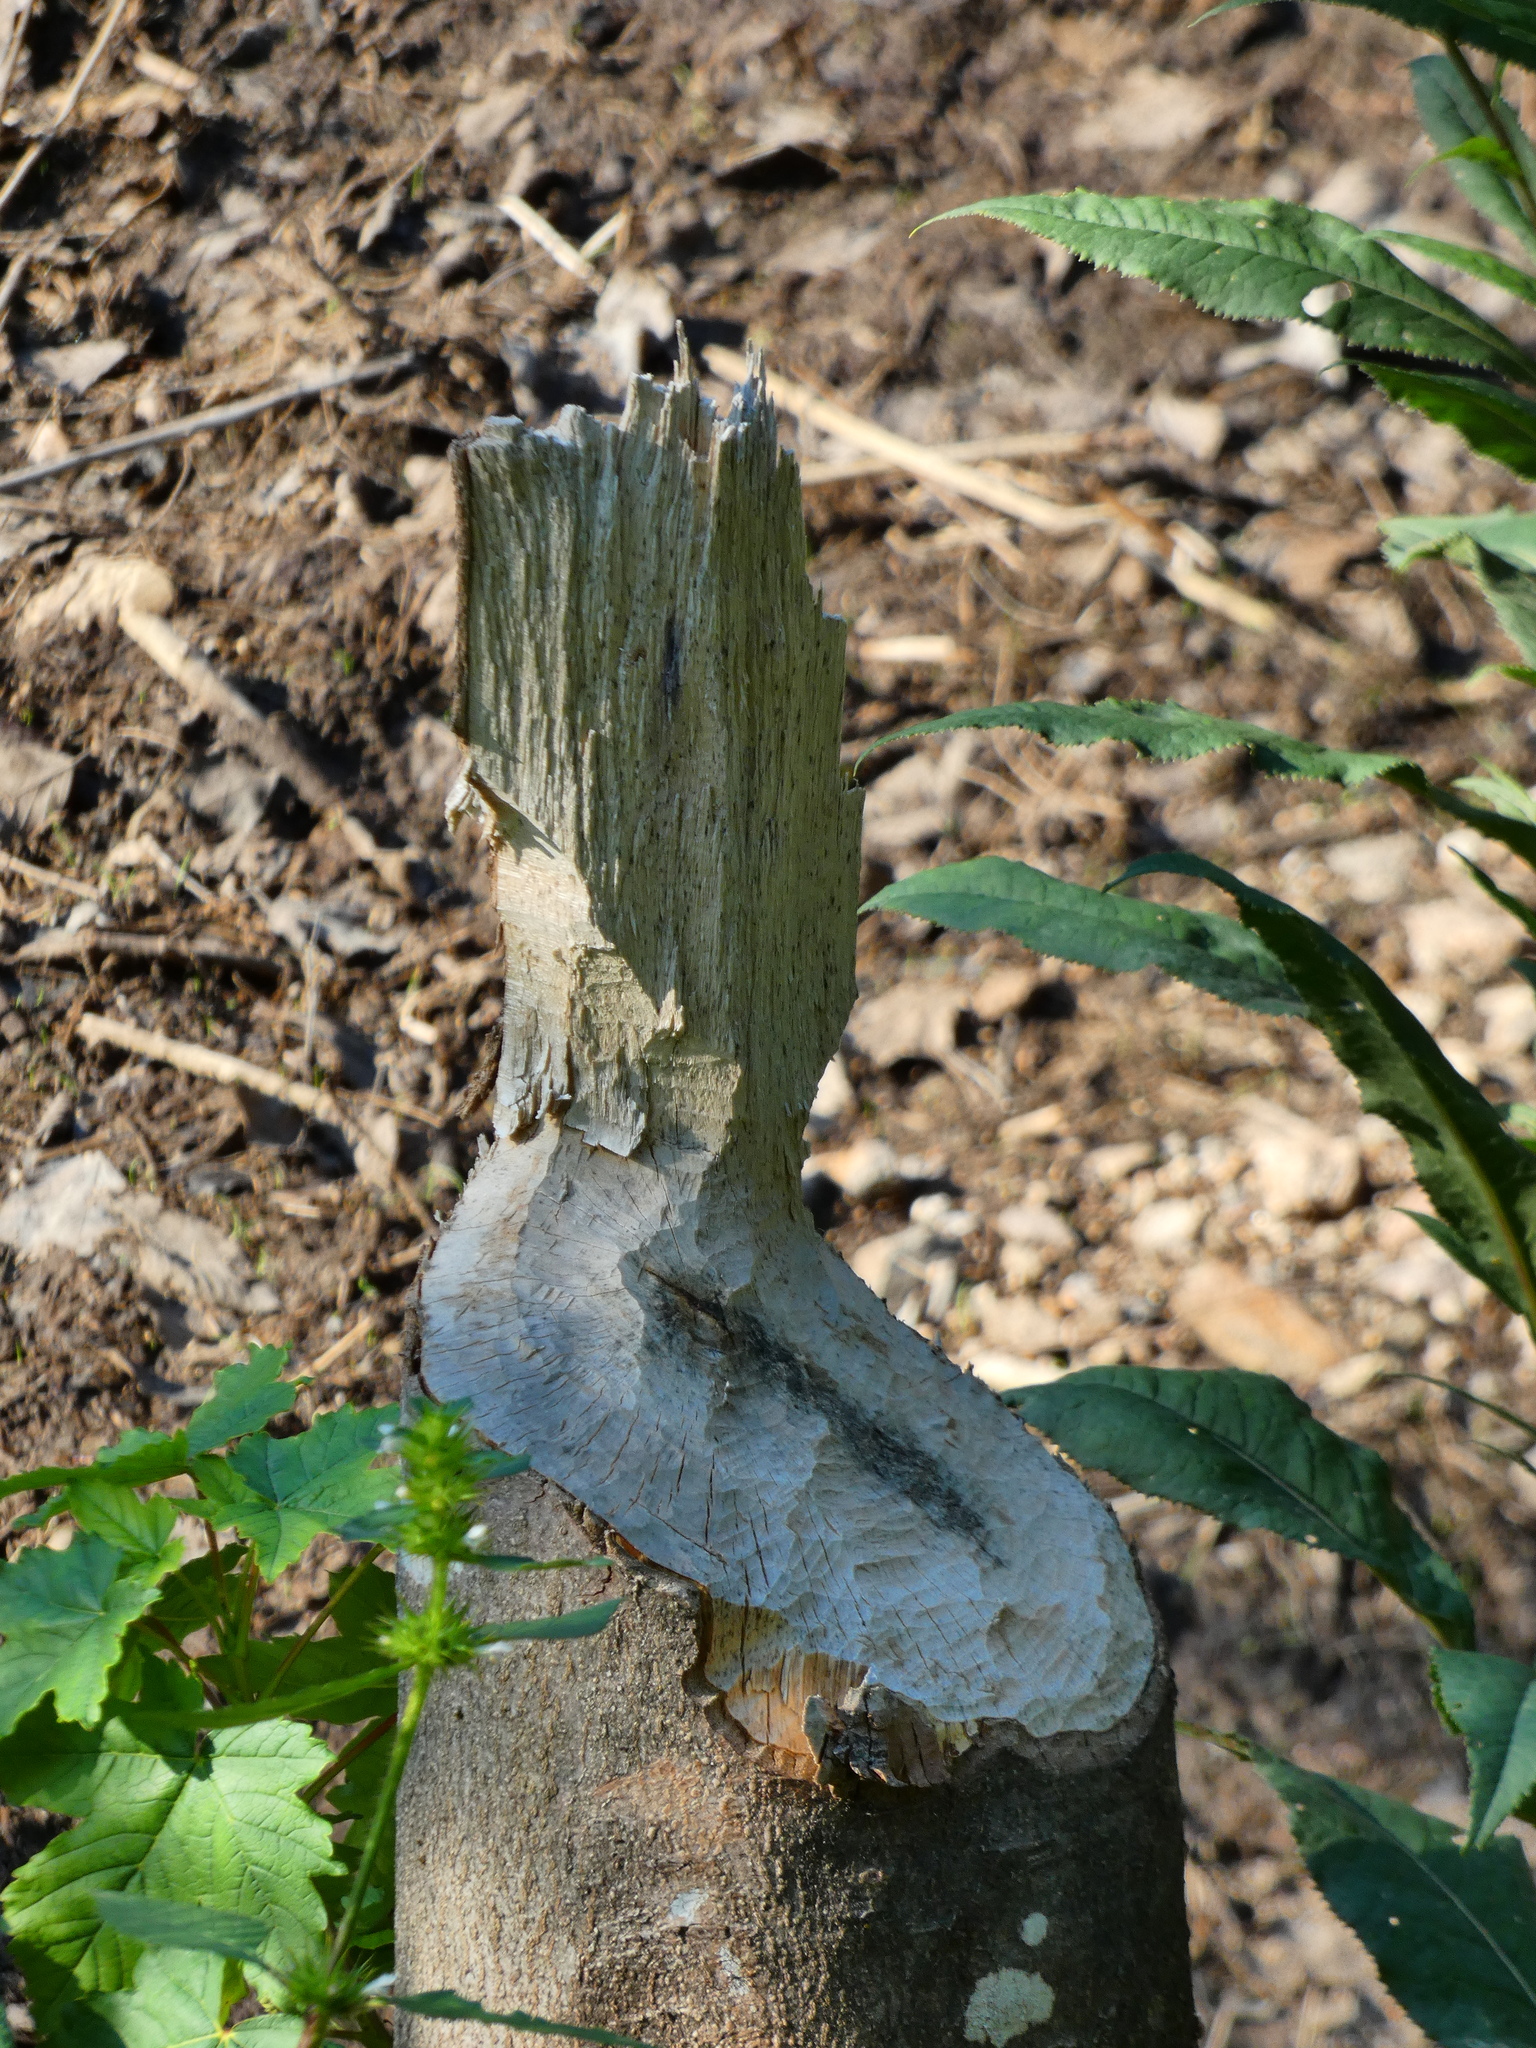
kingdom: Animalia
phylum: Chordata
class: Mammalia
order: Rodentia
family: Castoridae
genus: Castor
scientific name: Castor fiber
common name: Eurasian beaver
